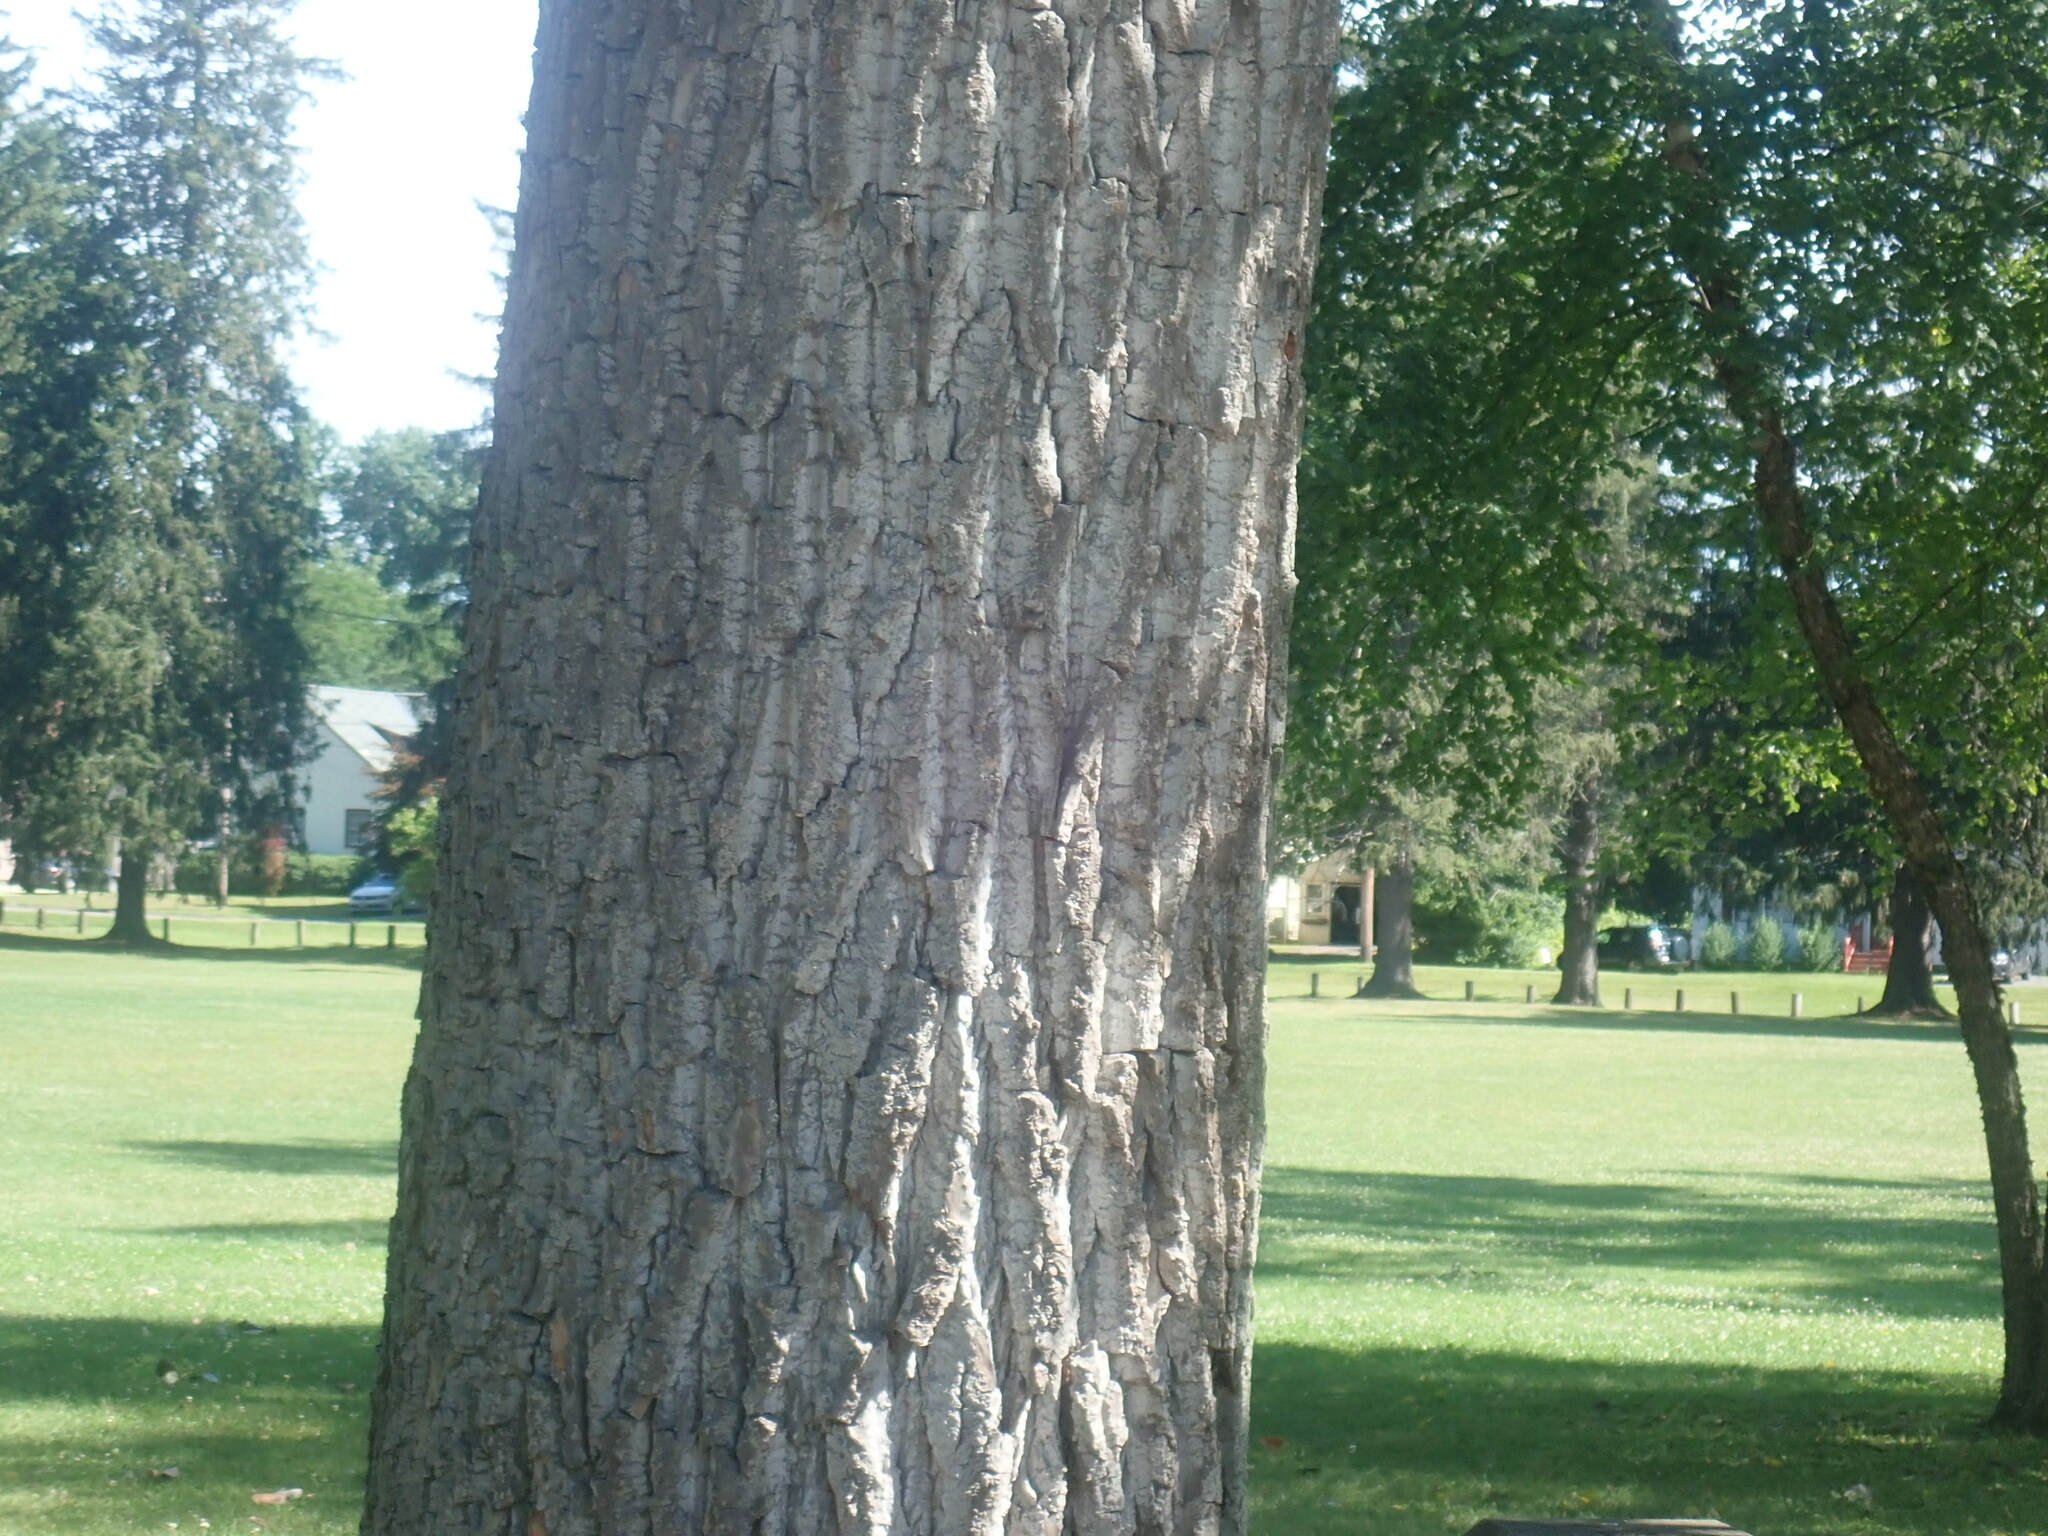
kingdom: Plantae
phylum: Tracheophyta
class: Magnoliopsida
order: Malpighiales
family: Salicaceae
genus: Populus
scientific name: Populus deltoides
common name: Eastern cottonwood
